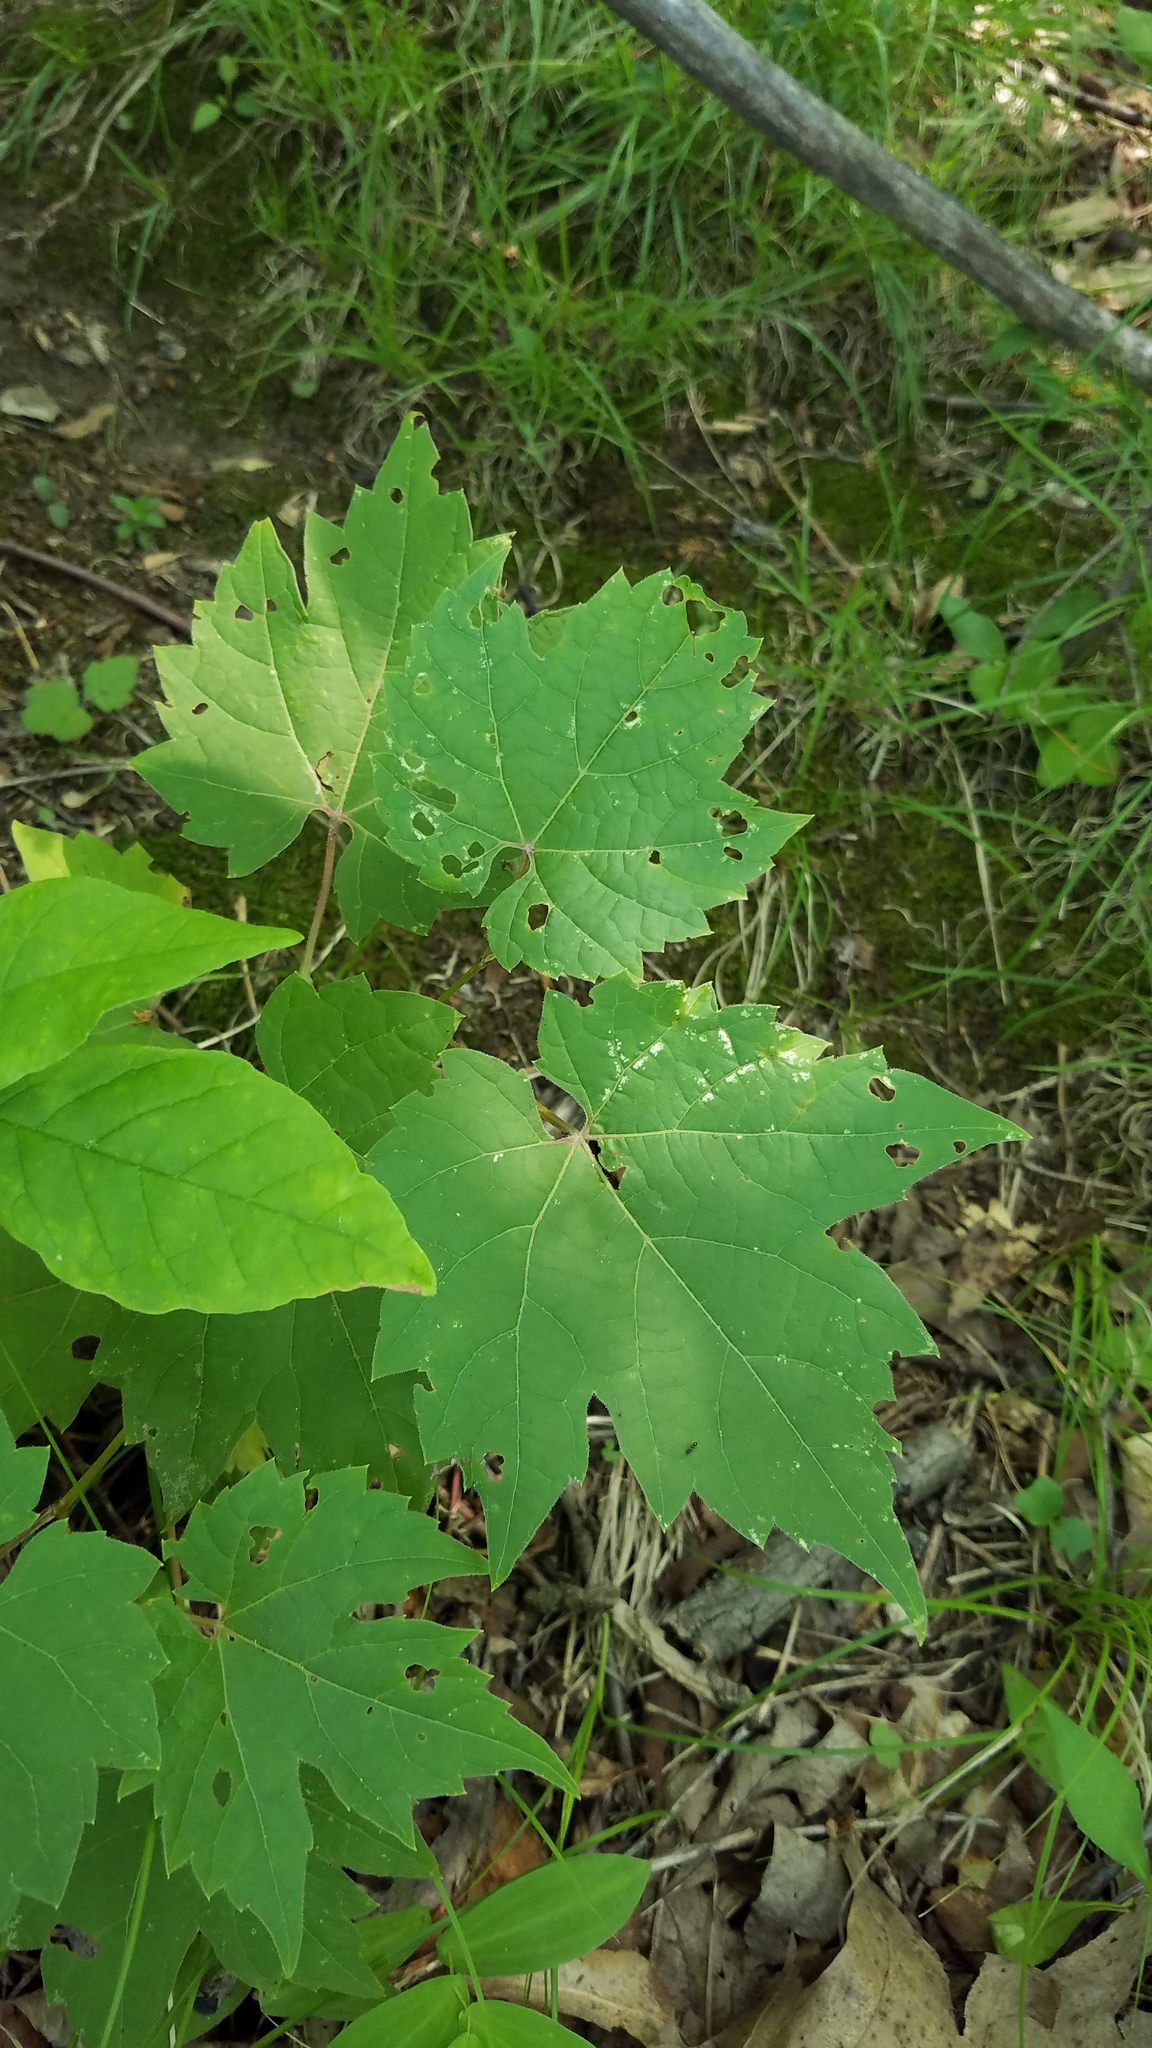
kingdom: Plantae
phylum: Tracheophyta
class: Magnoliopsida
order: Vitales
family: Vitaceae
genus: Vitis
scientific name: Vitis riparia
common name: Frost grape
